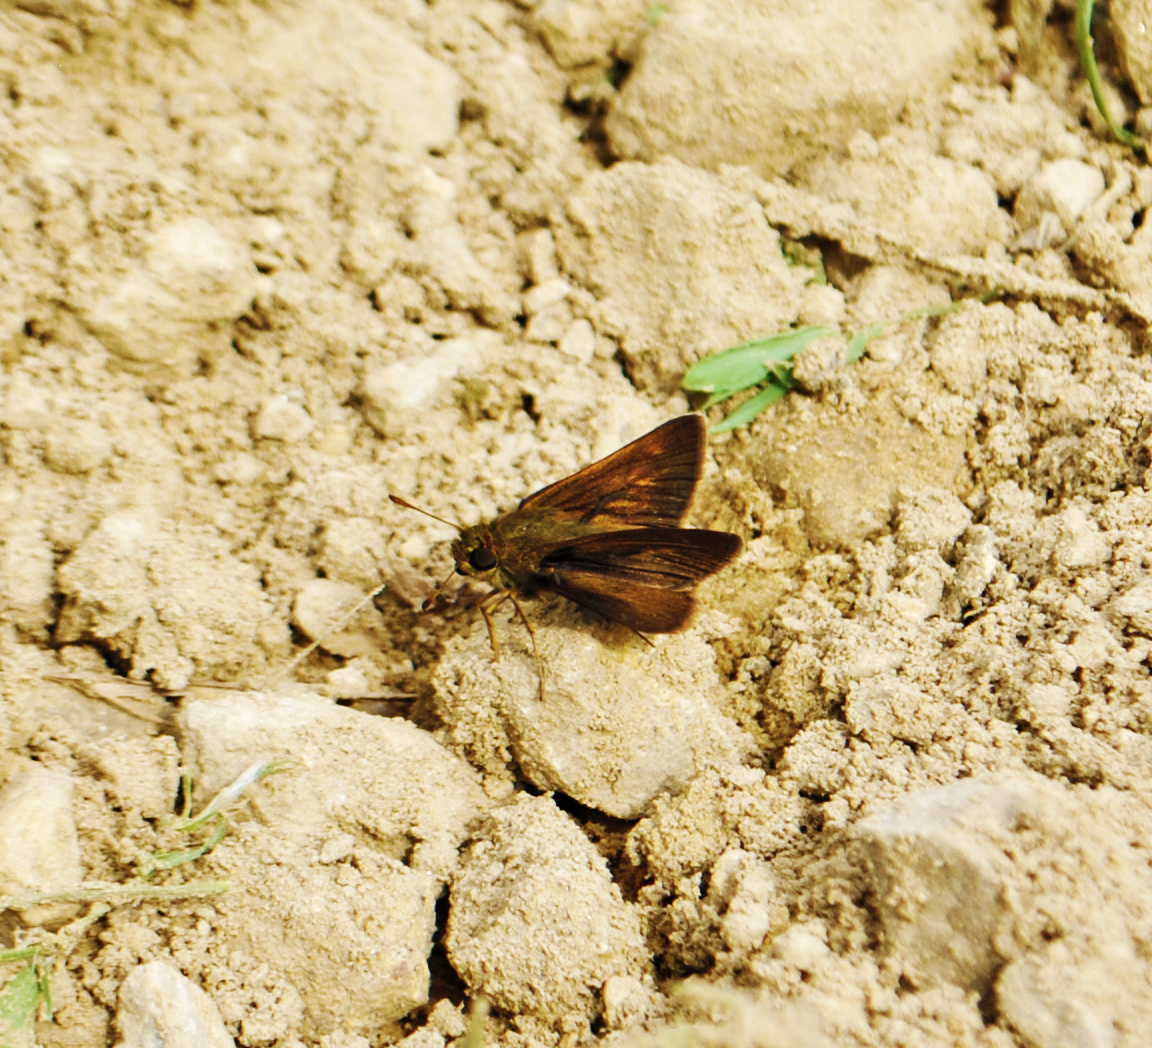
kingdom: Animalia
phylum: Arthropoda
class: Insecta
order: Lepidoptera
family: Hesperiidae
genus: Euphyes
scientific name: Euphyes dion
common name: Dion skipper
